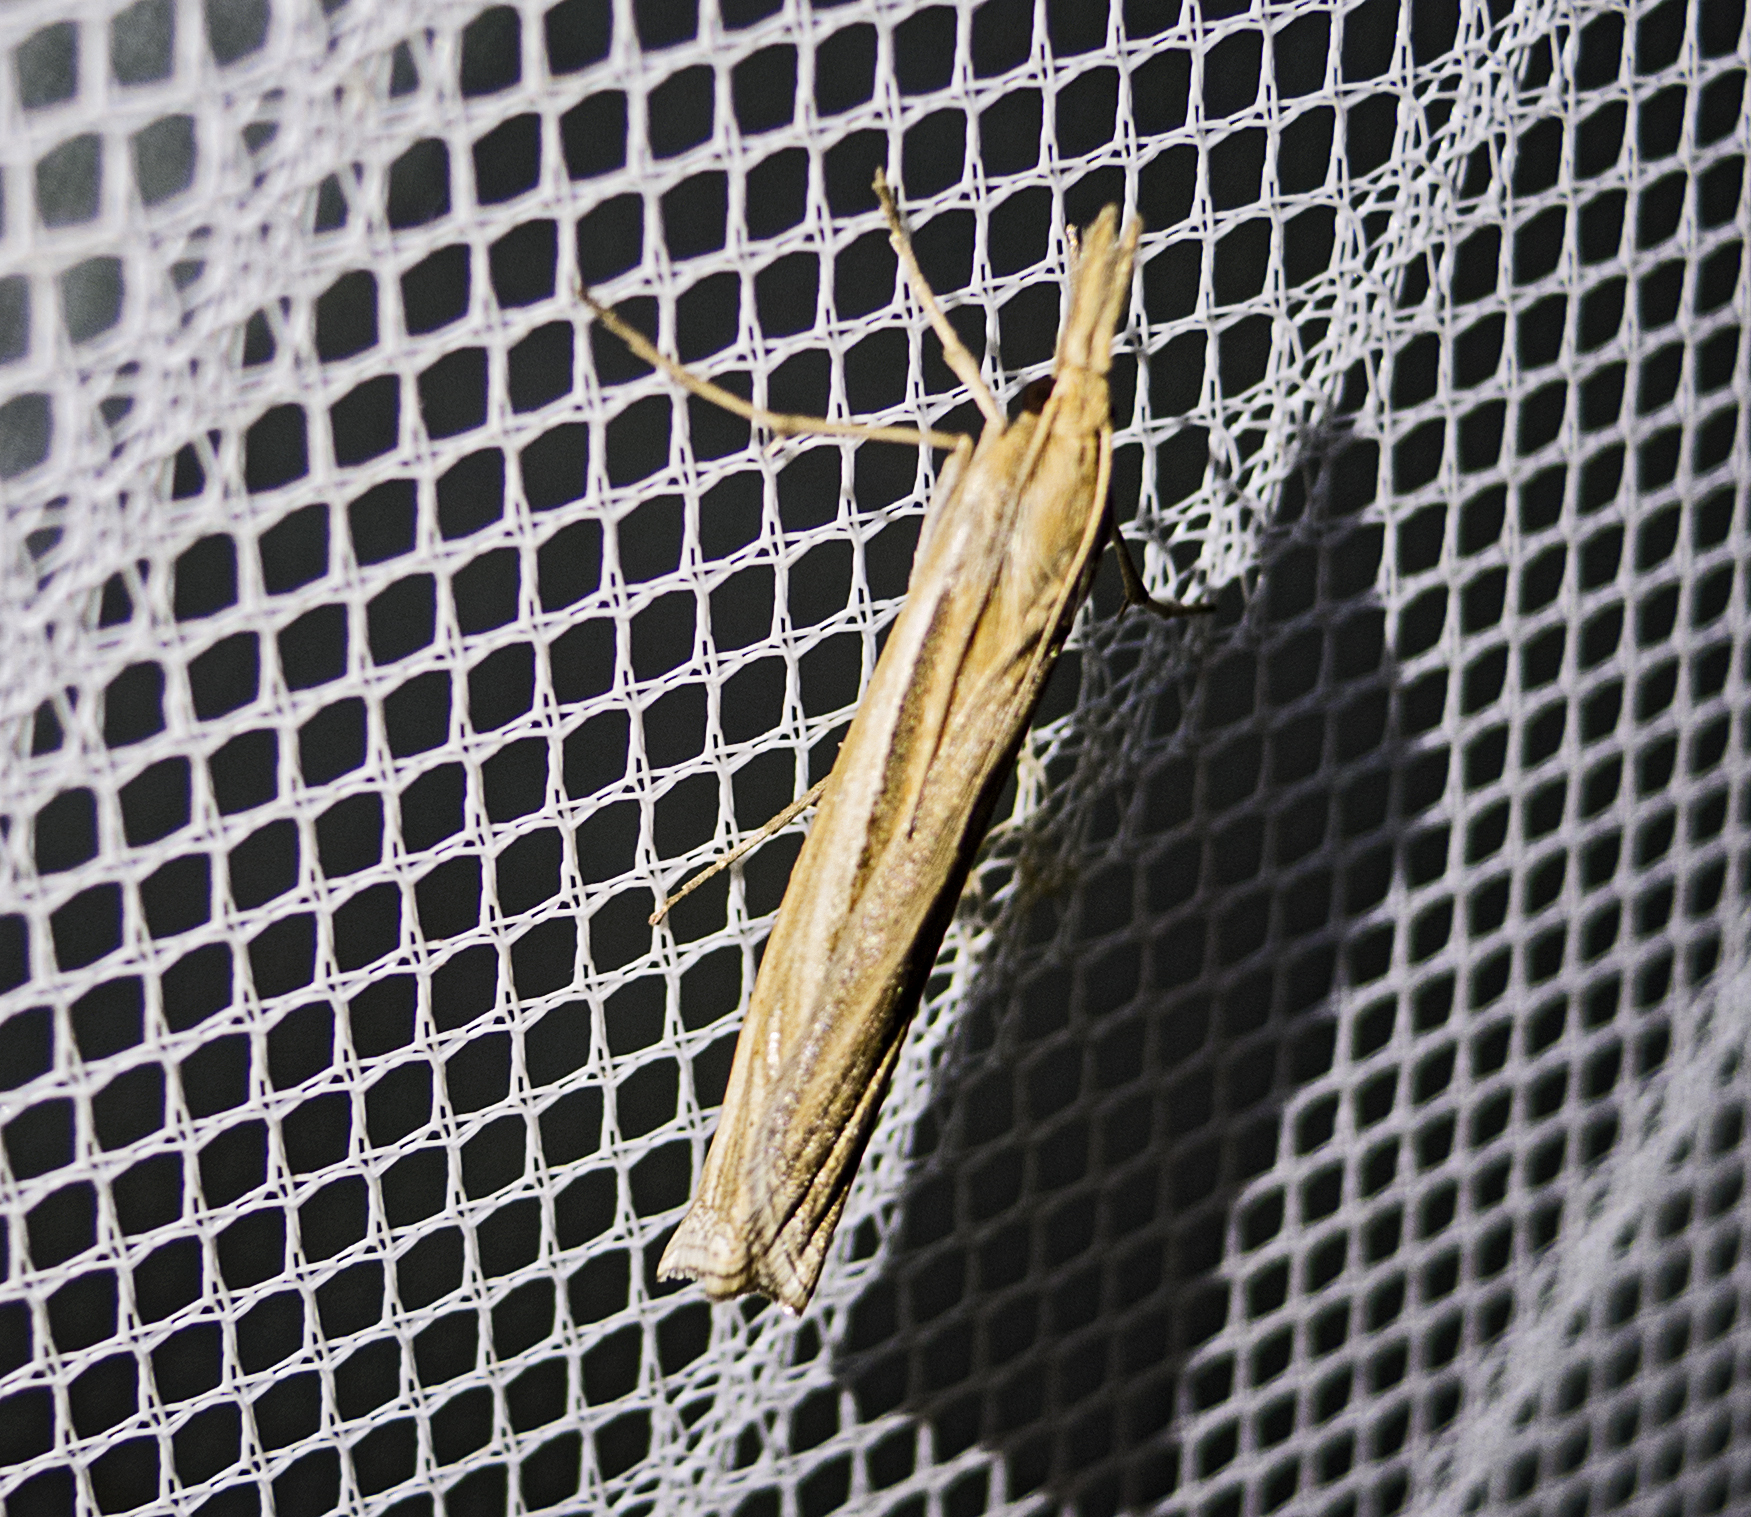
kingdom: Animalia
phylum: Arthropoda
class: Insecta
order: Lepidoptera
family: Crambidae
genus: Ancylolomia
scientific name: Ancylolomia
